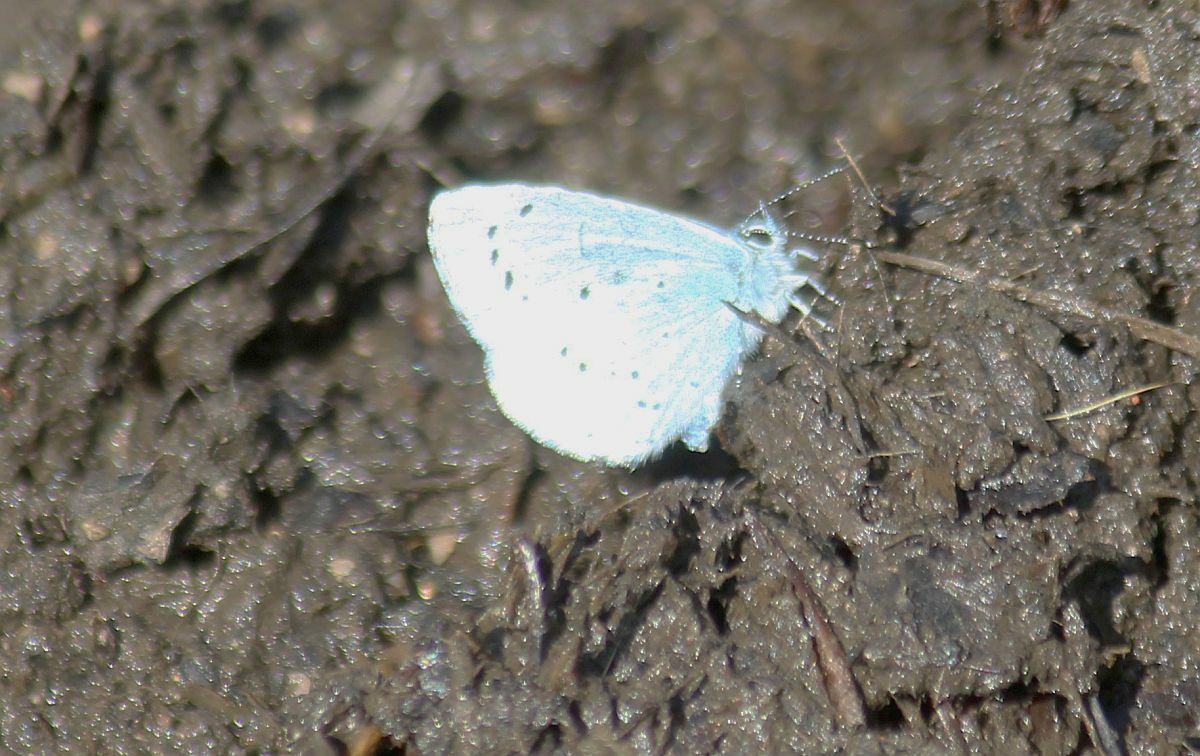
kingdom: Animalia
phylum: Arthropoda
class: Insecta
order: Lepidoptera
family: Lycaenidae
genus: Celastrina
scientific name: Celastrina argiolus
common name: Holly blue
